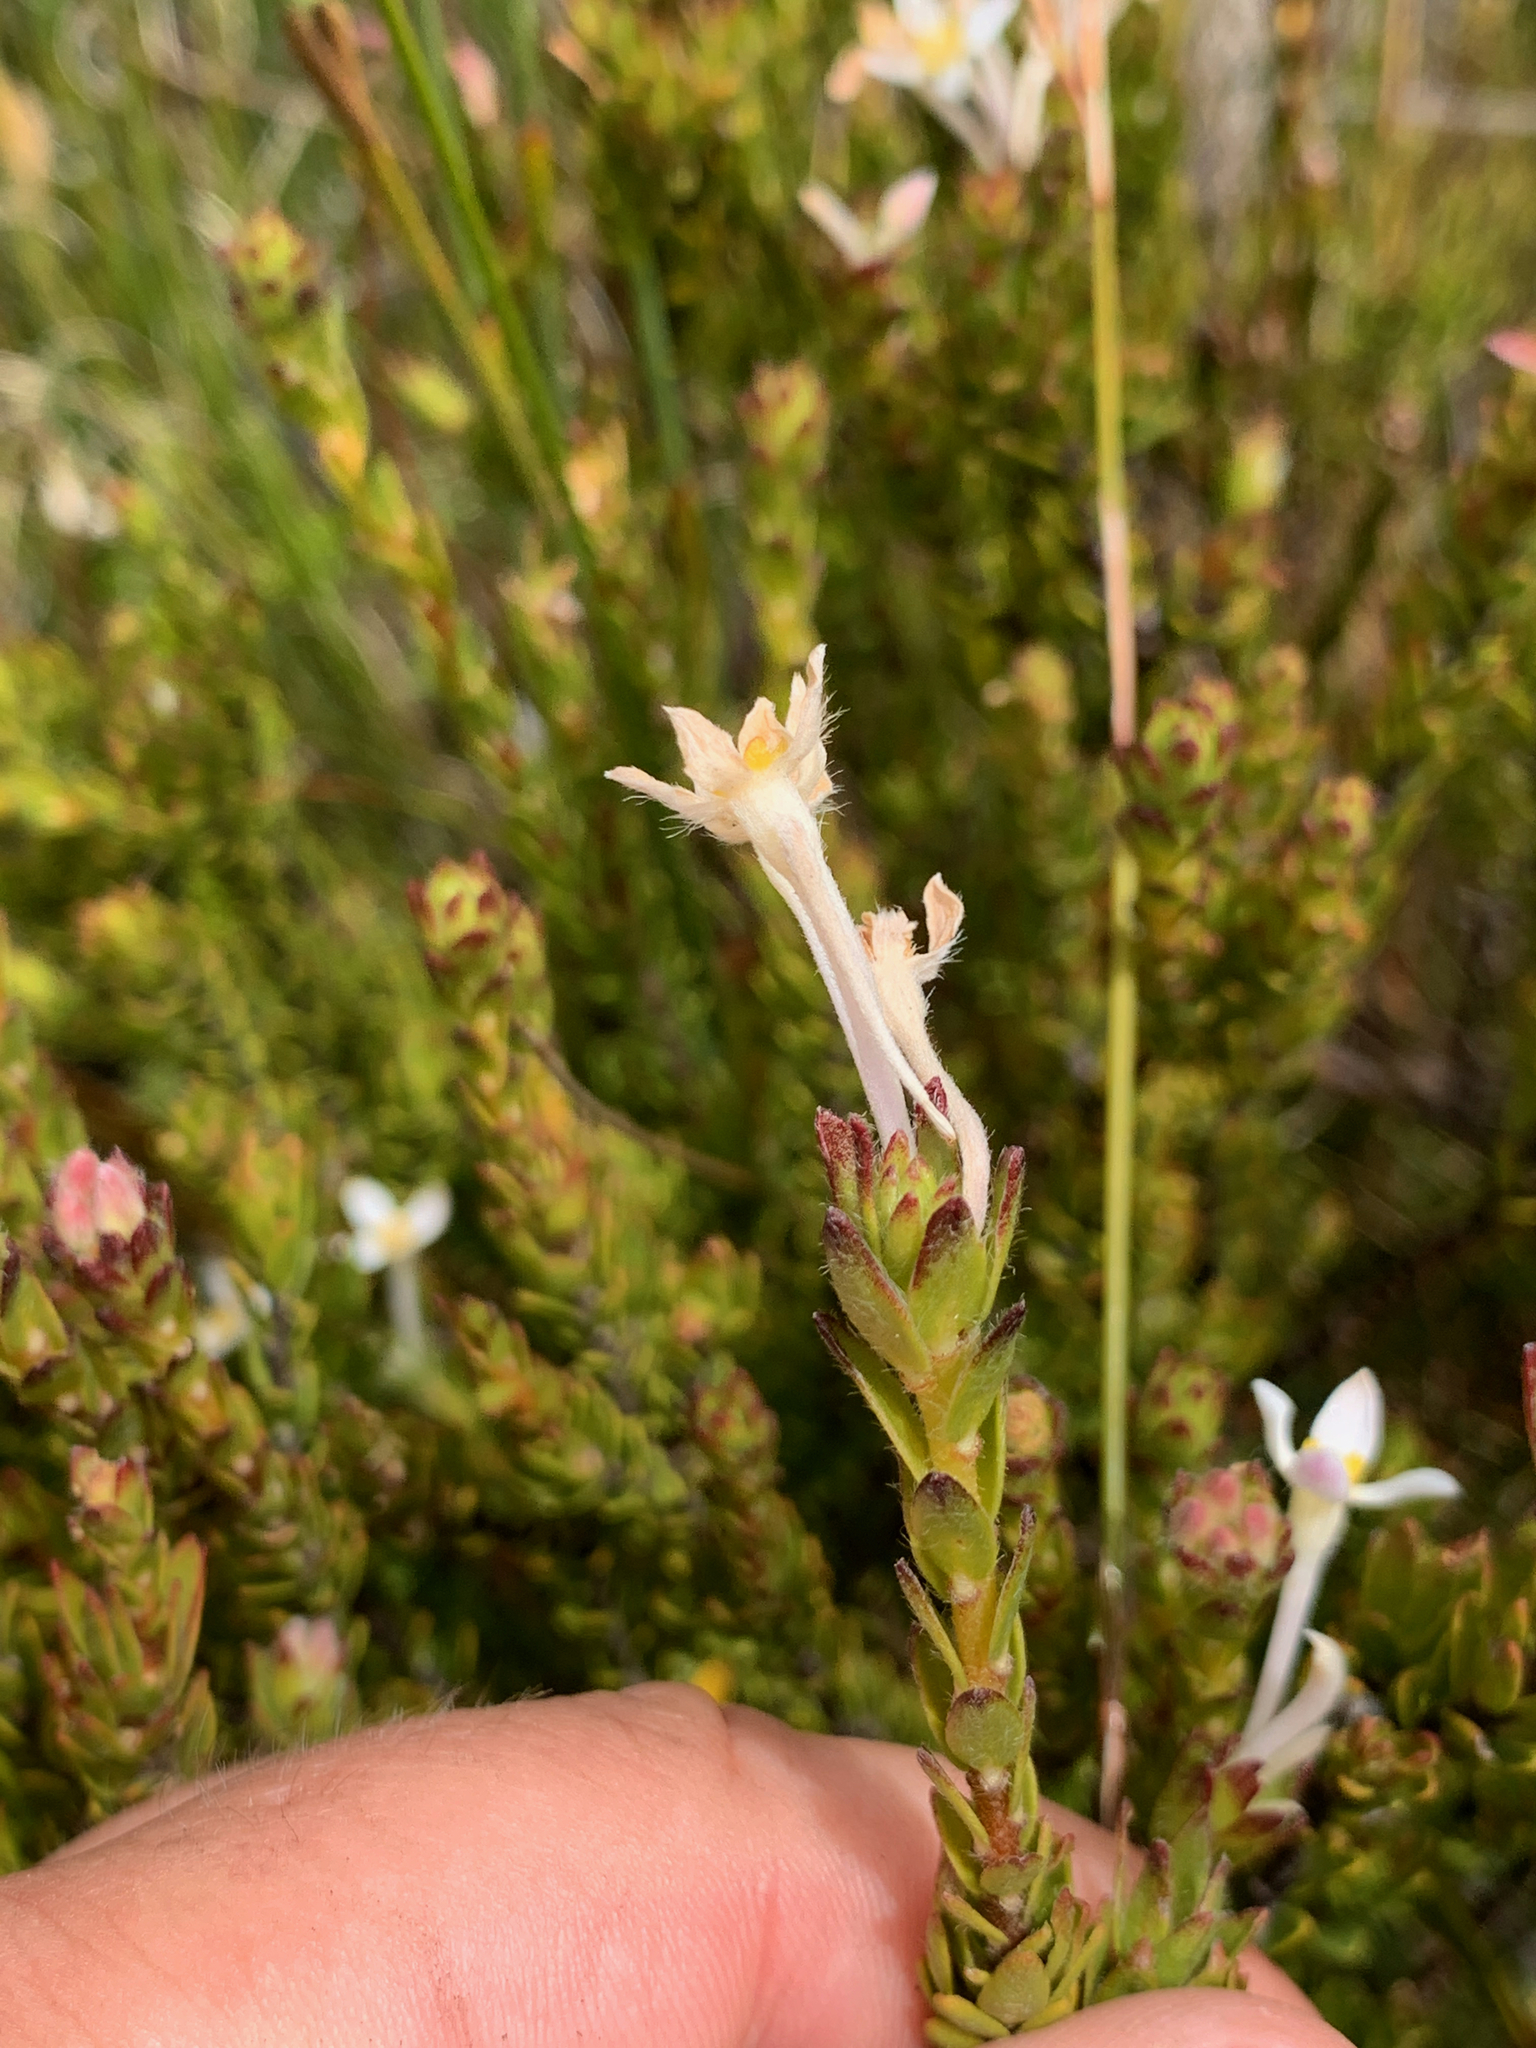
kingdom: Plantae
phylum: Tracheophyta
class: Magnoliopsida
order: Malvales
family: Thymelaeaceae
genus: Gnidia
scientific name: Gnidia tomentosa
